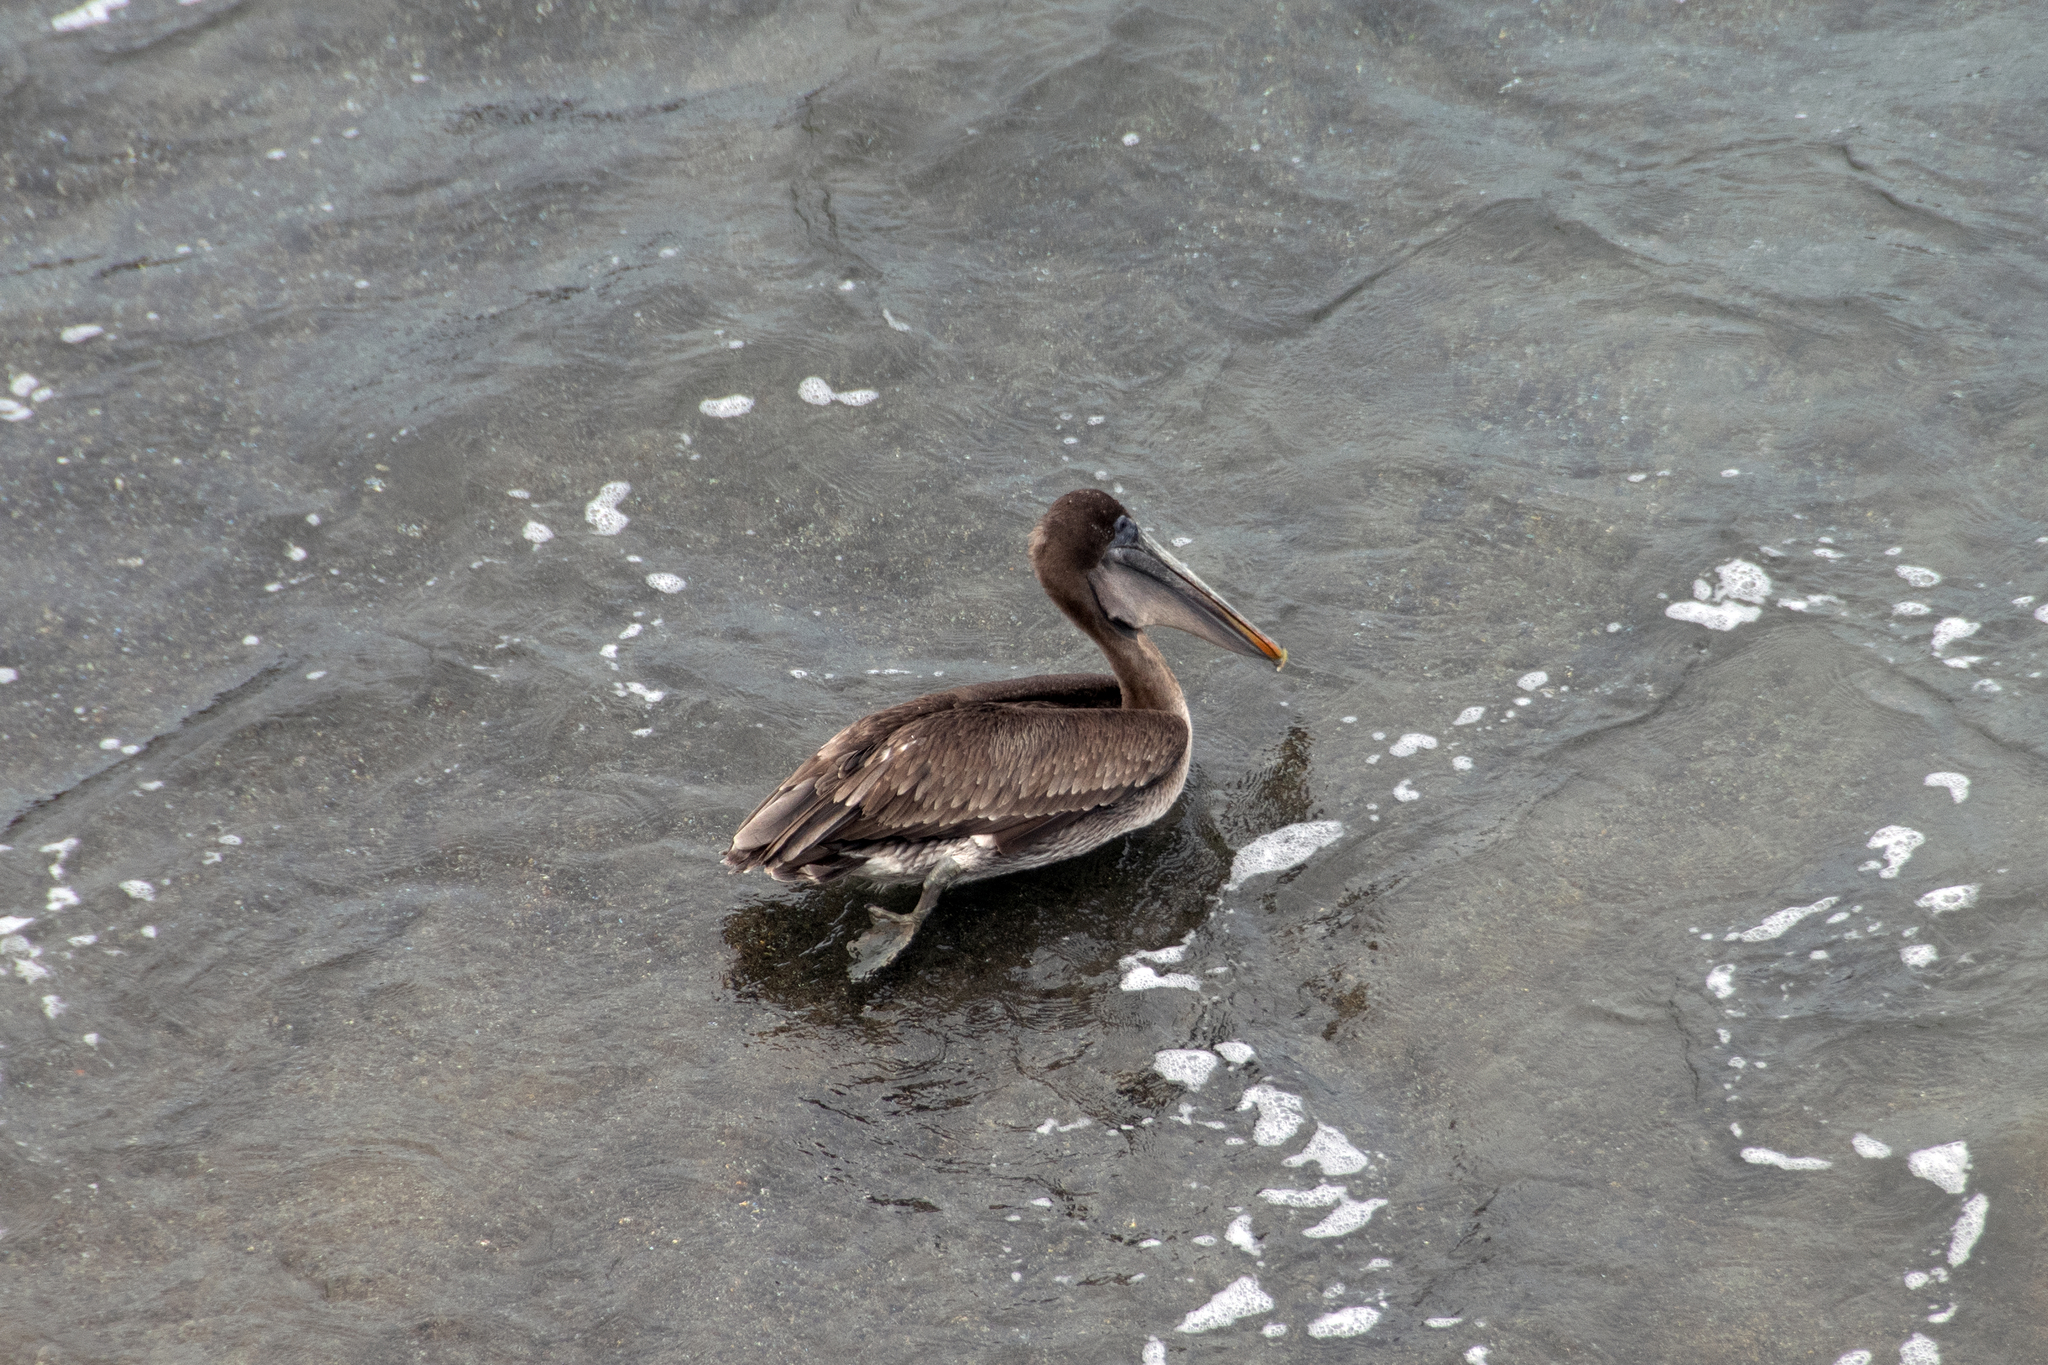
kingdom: Animalia
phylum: Chordata
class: Aves
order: Pelecaniformes
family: Pelecanidae
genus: Pelecanus
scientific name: Pelecanus occidentalis
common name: Brown pelican
